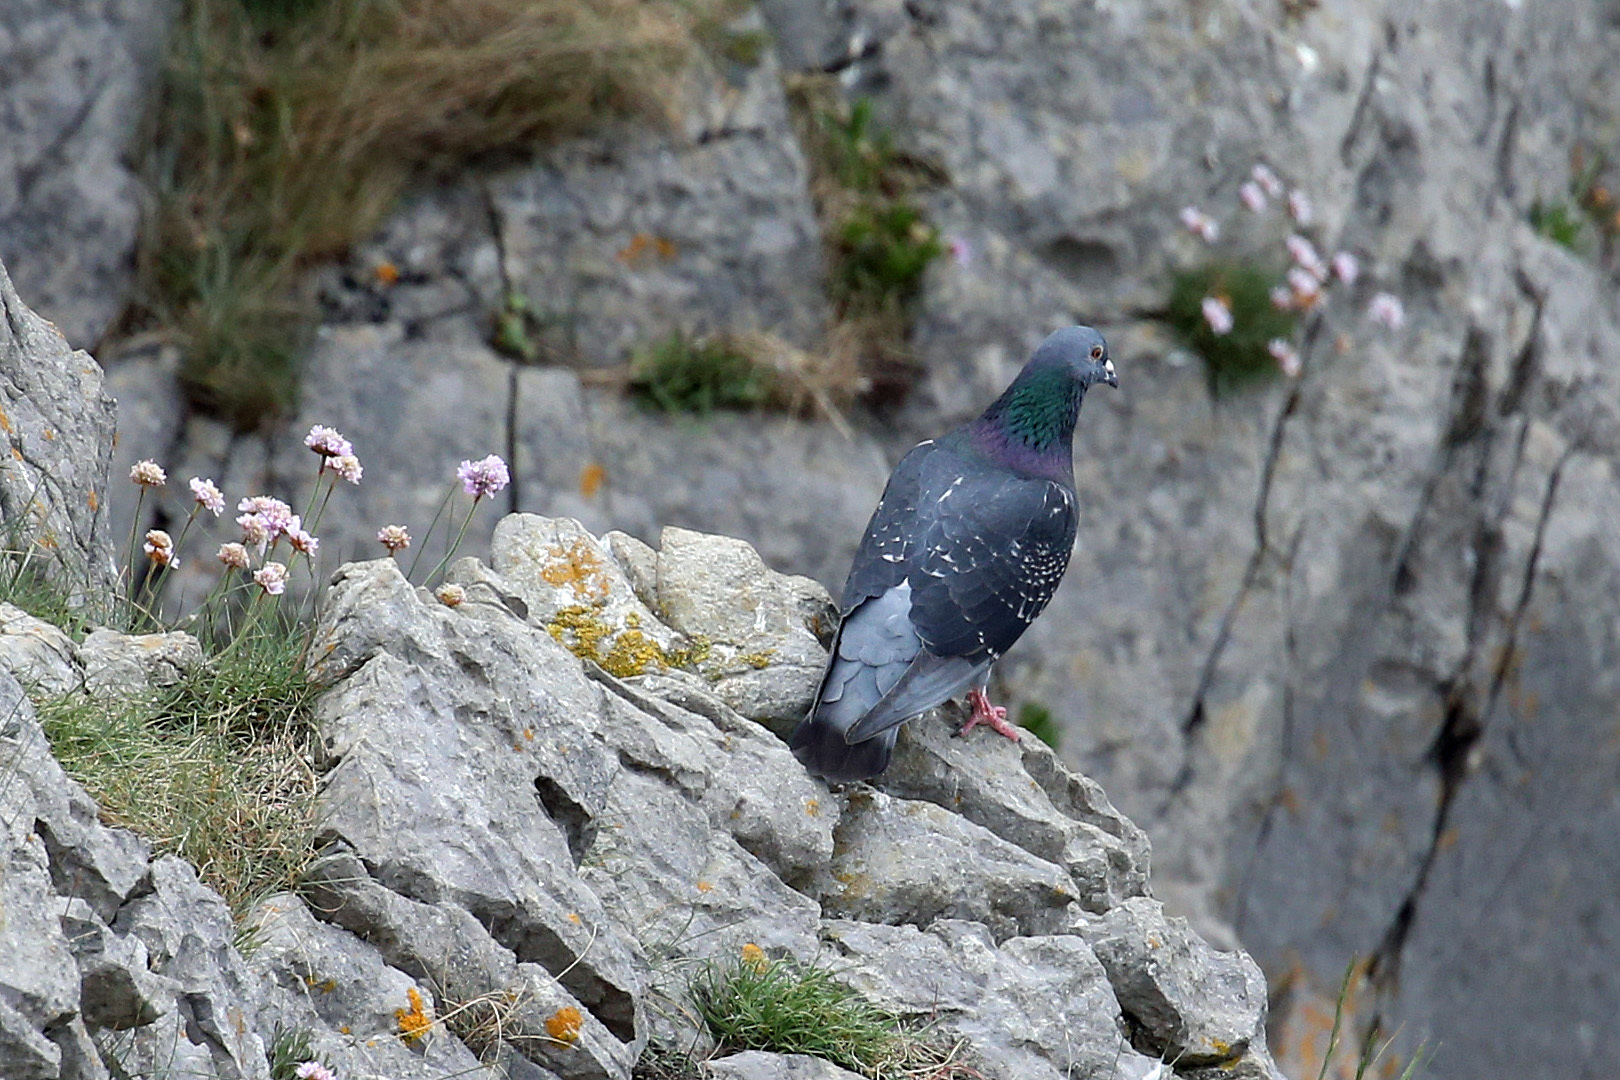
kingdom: Animalia
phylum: Chordata
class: Aves
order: Columbiformes
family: Columbidae
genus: Columba
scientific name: Columba livia
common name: Rock pigeon
